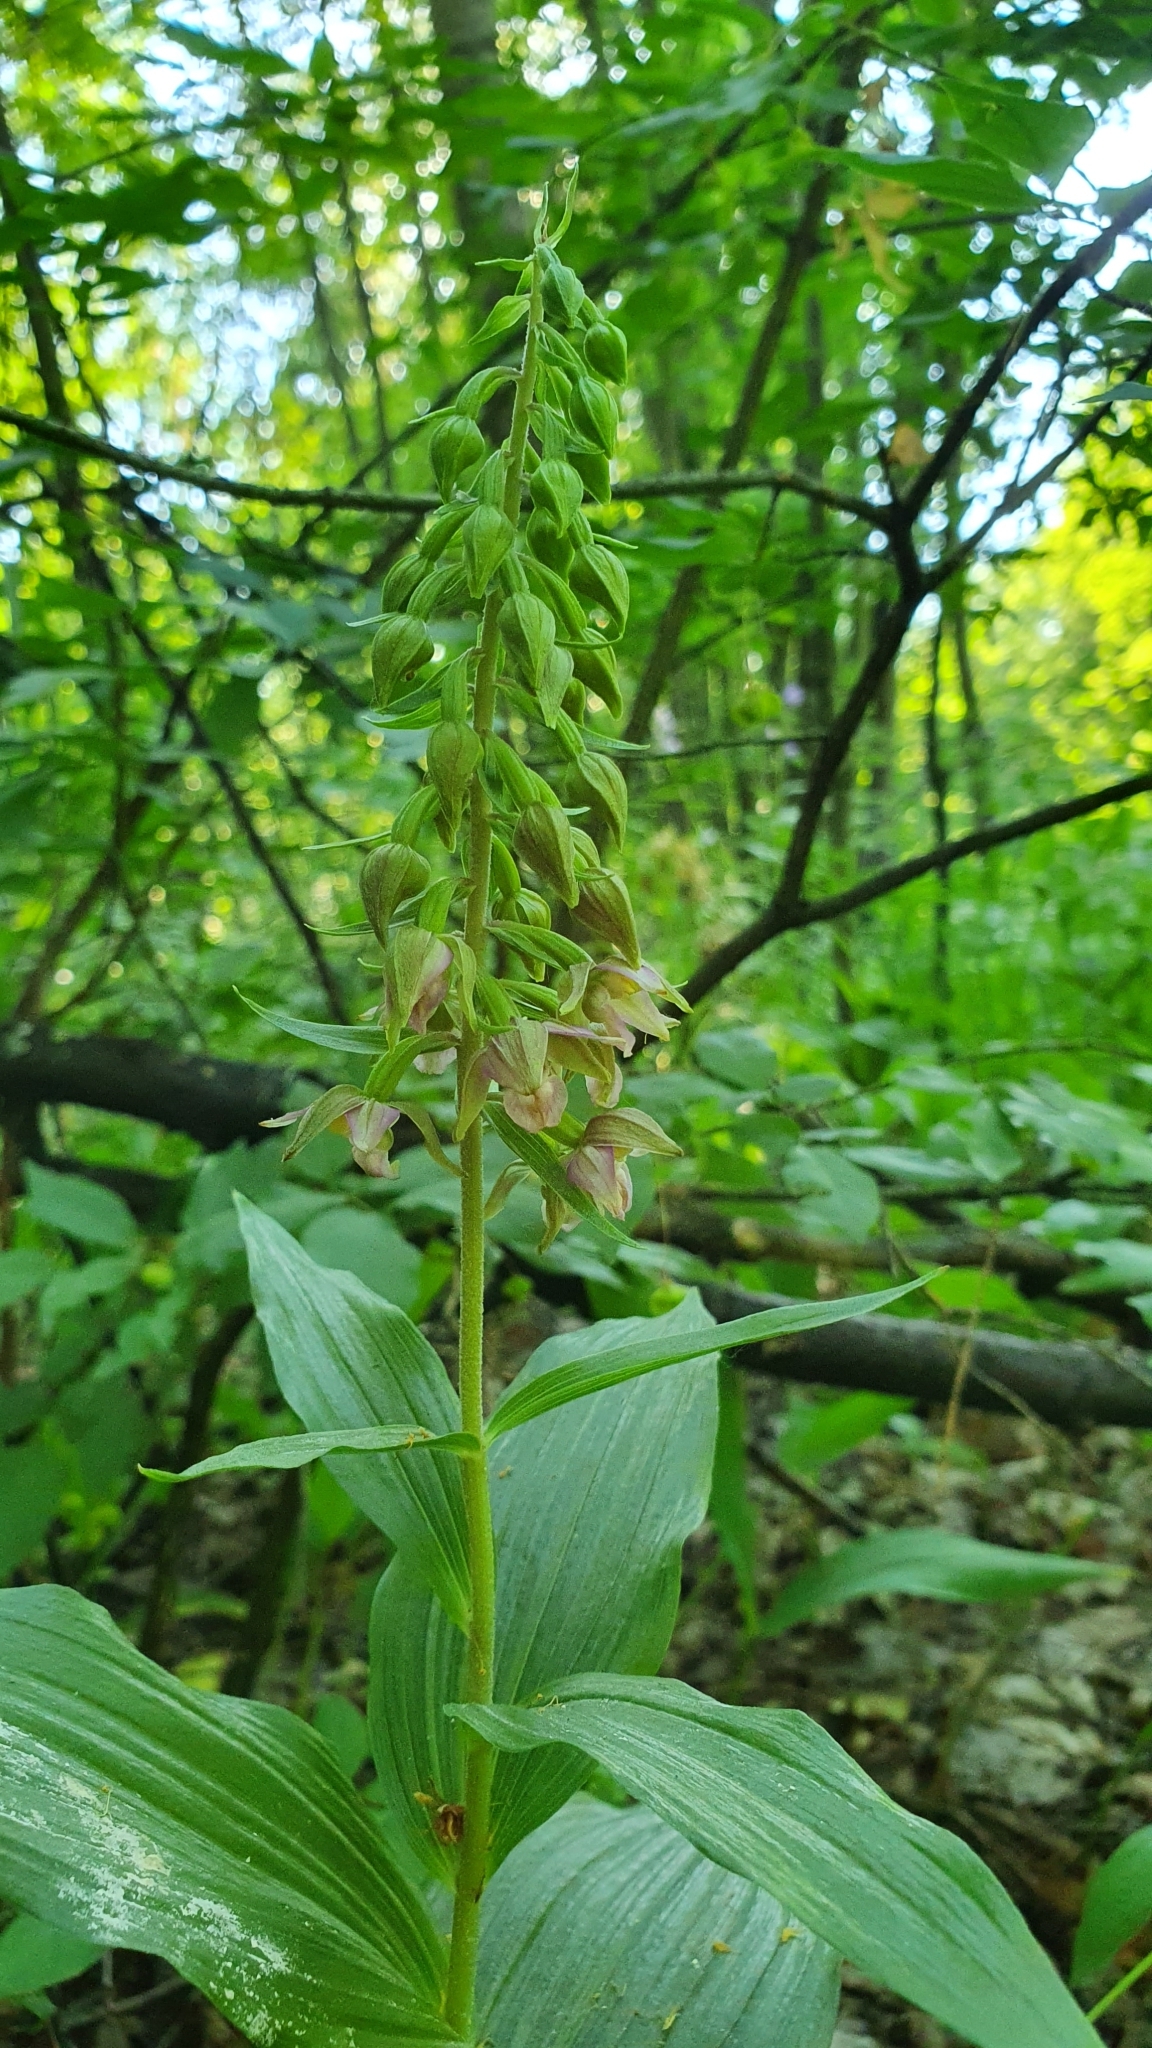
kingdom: Plantae
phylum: Tracheophyta
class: Liliopsida
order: Asparagales
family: Orchidaceae
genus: Epipactis
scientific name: Epipactis helleborine
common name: Broad-leaved helleborine
